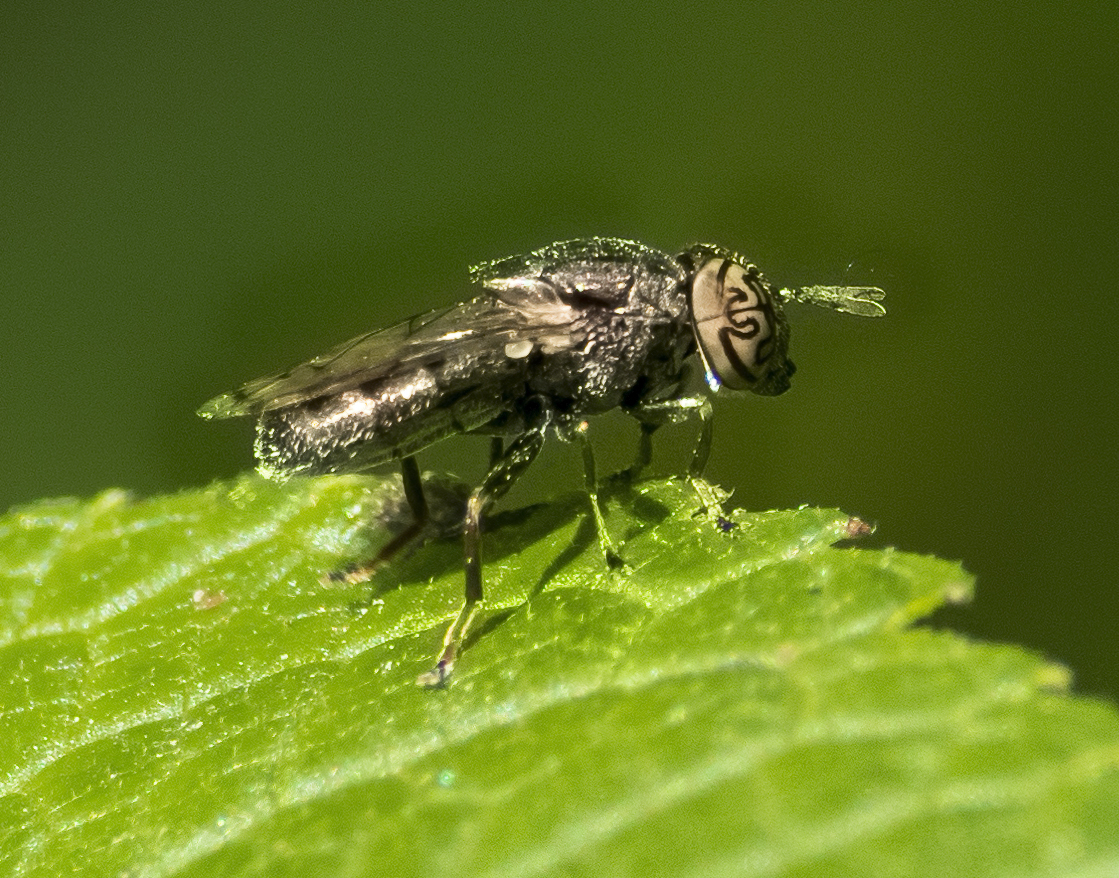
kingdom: Animalia
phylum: Arthropoda
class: Insecta
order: Diptera
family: Syrphidae
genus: Orthonevra
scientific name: Orthonevra nitida
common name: Wavy mucksucker
